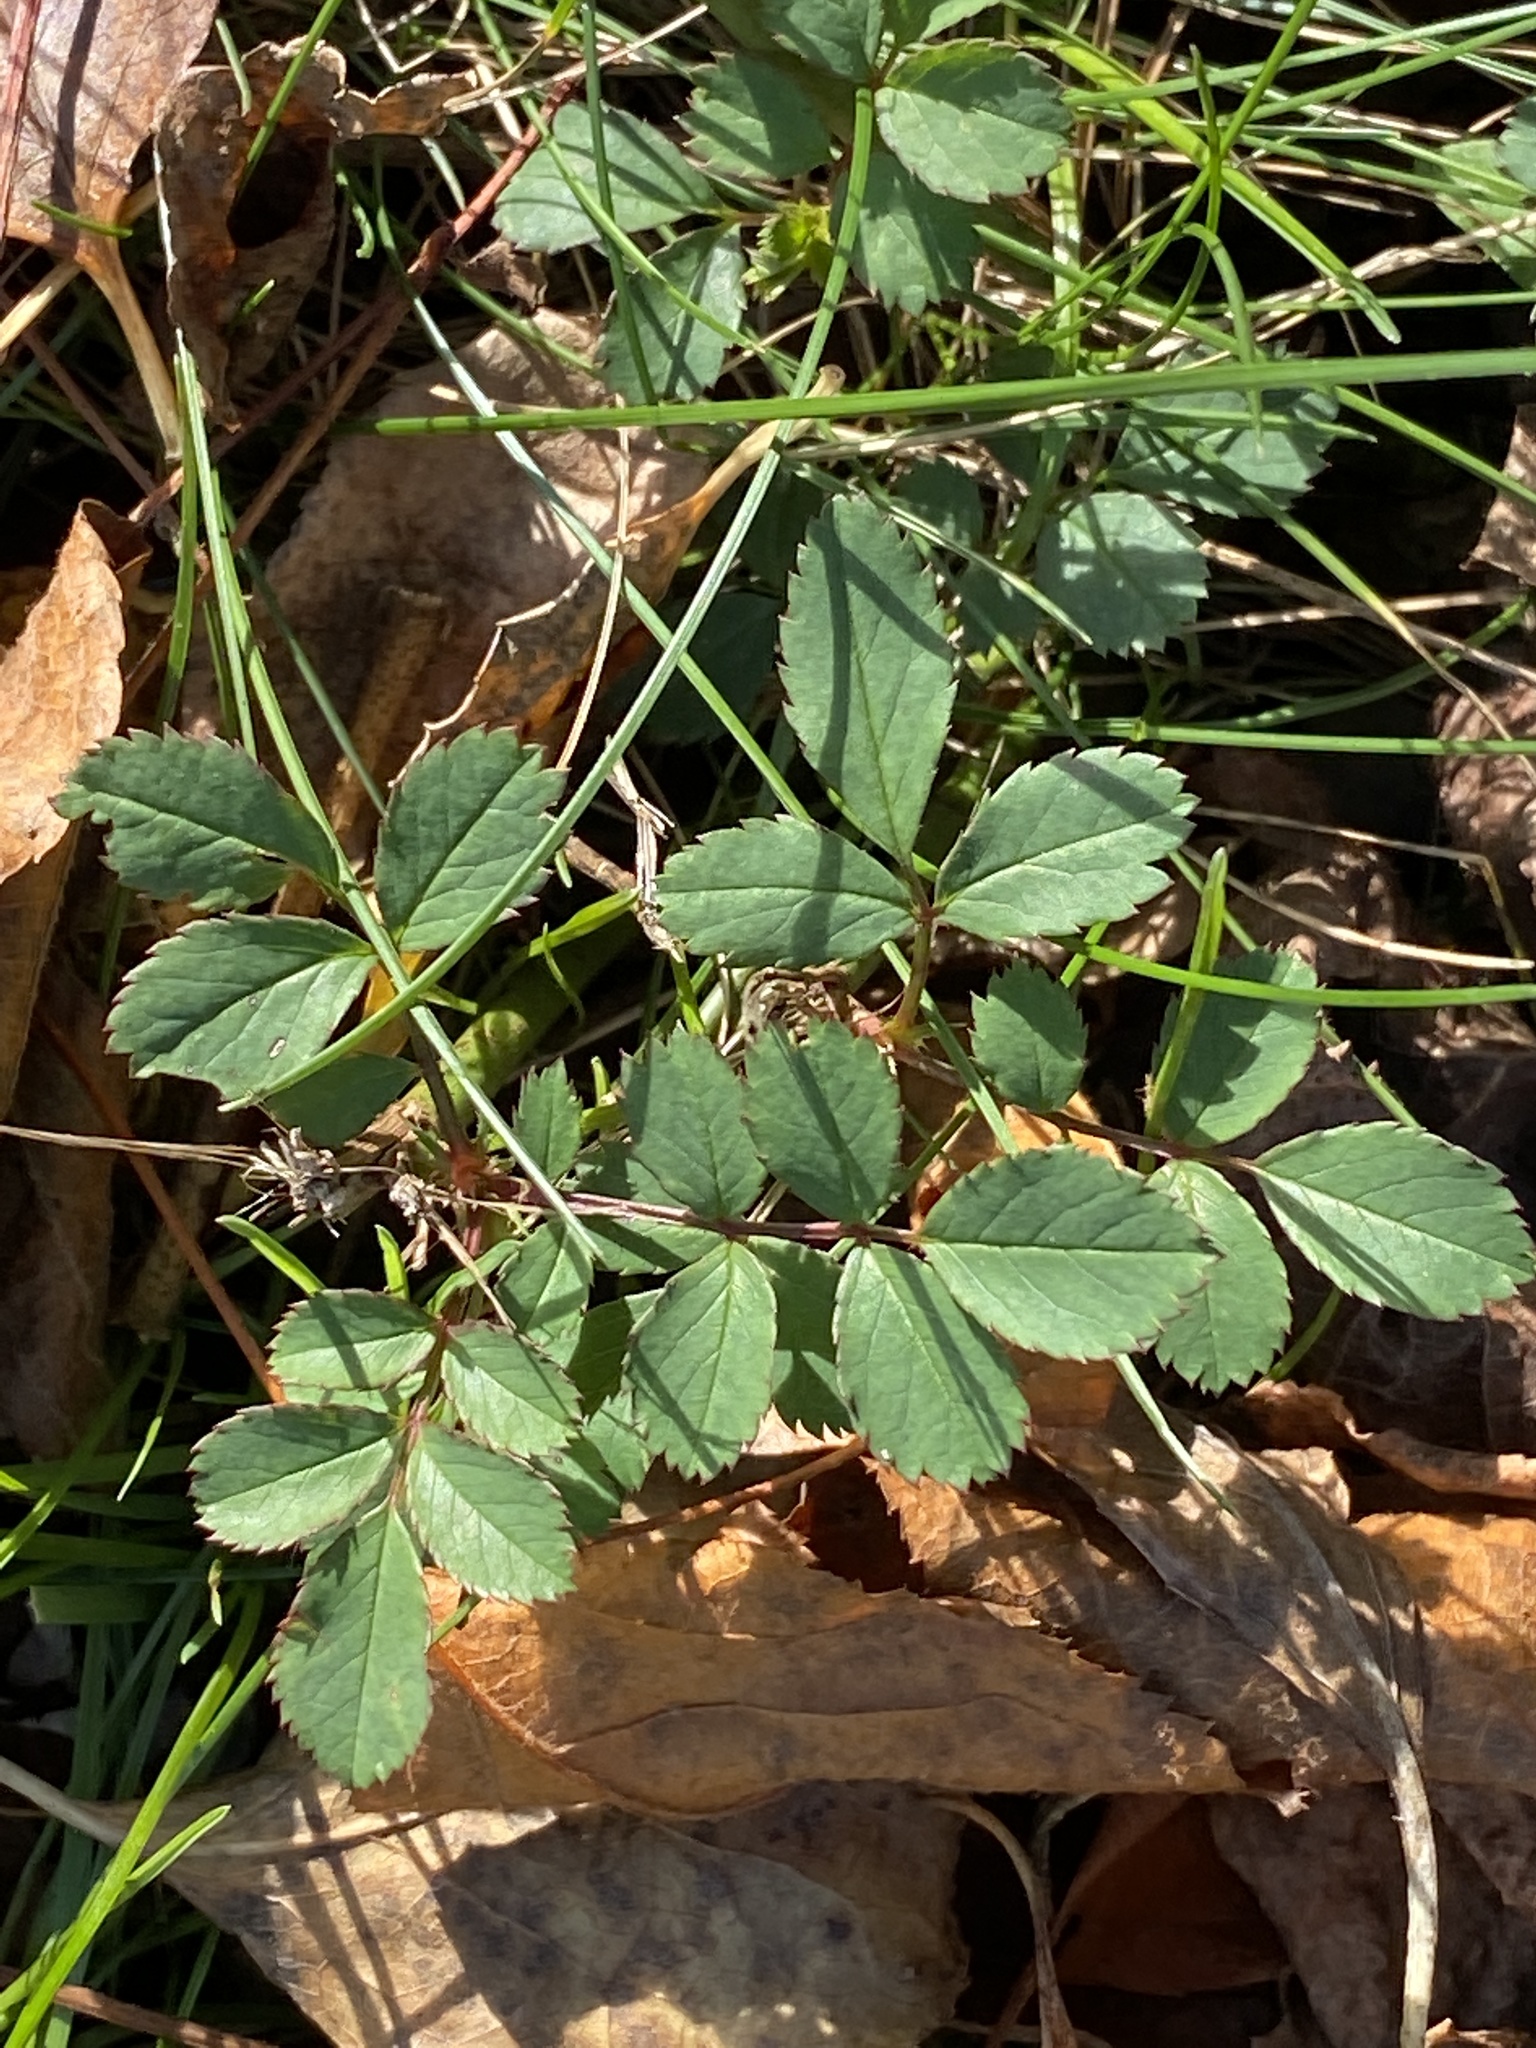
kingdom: Plantae
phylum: Tracheophyta
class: Magnoliopsida
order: Rosales
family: Rosaceae
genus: Rosa
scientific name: Rosa multiflora
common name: Multiflora rose
